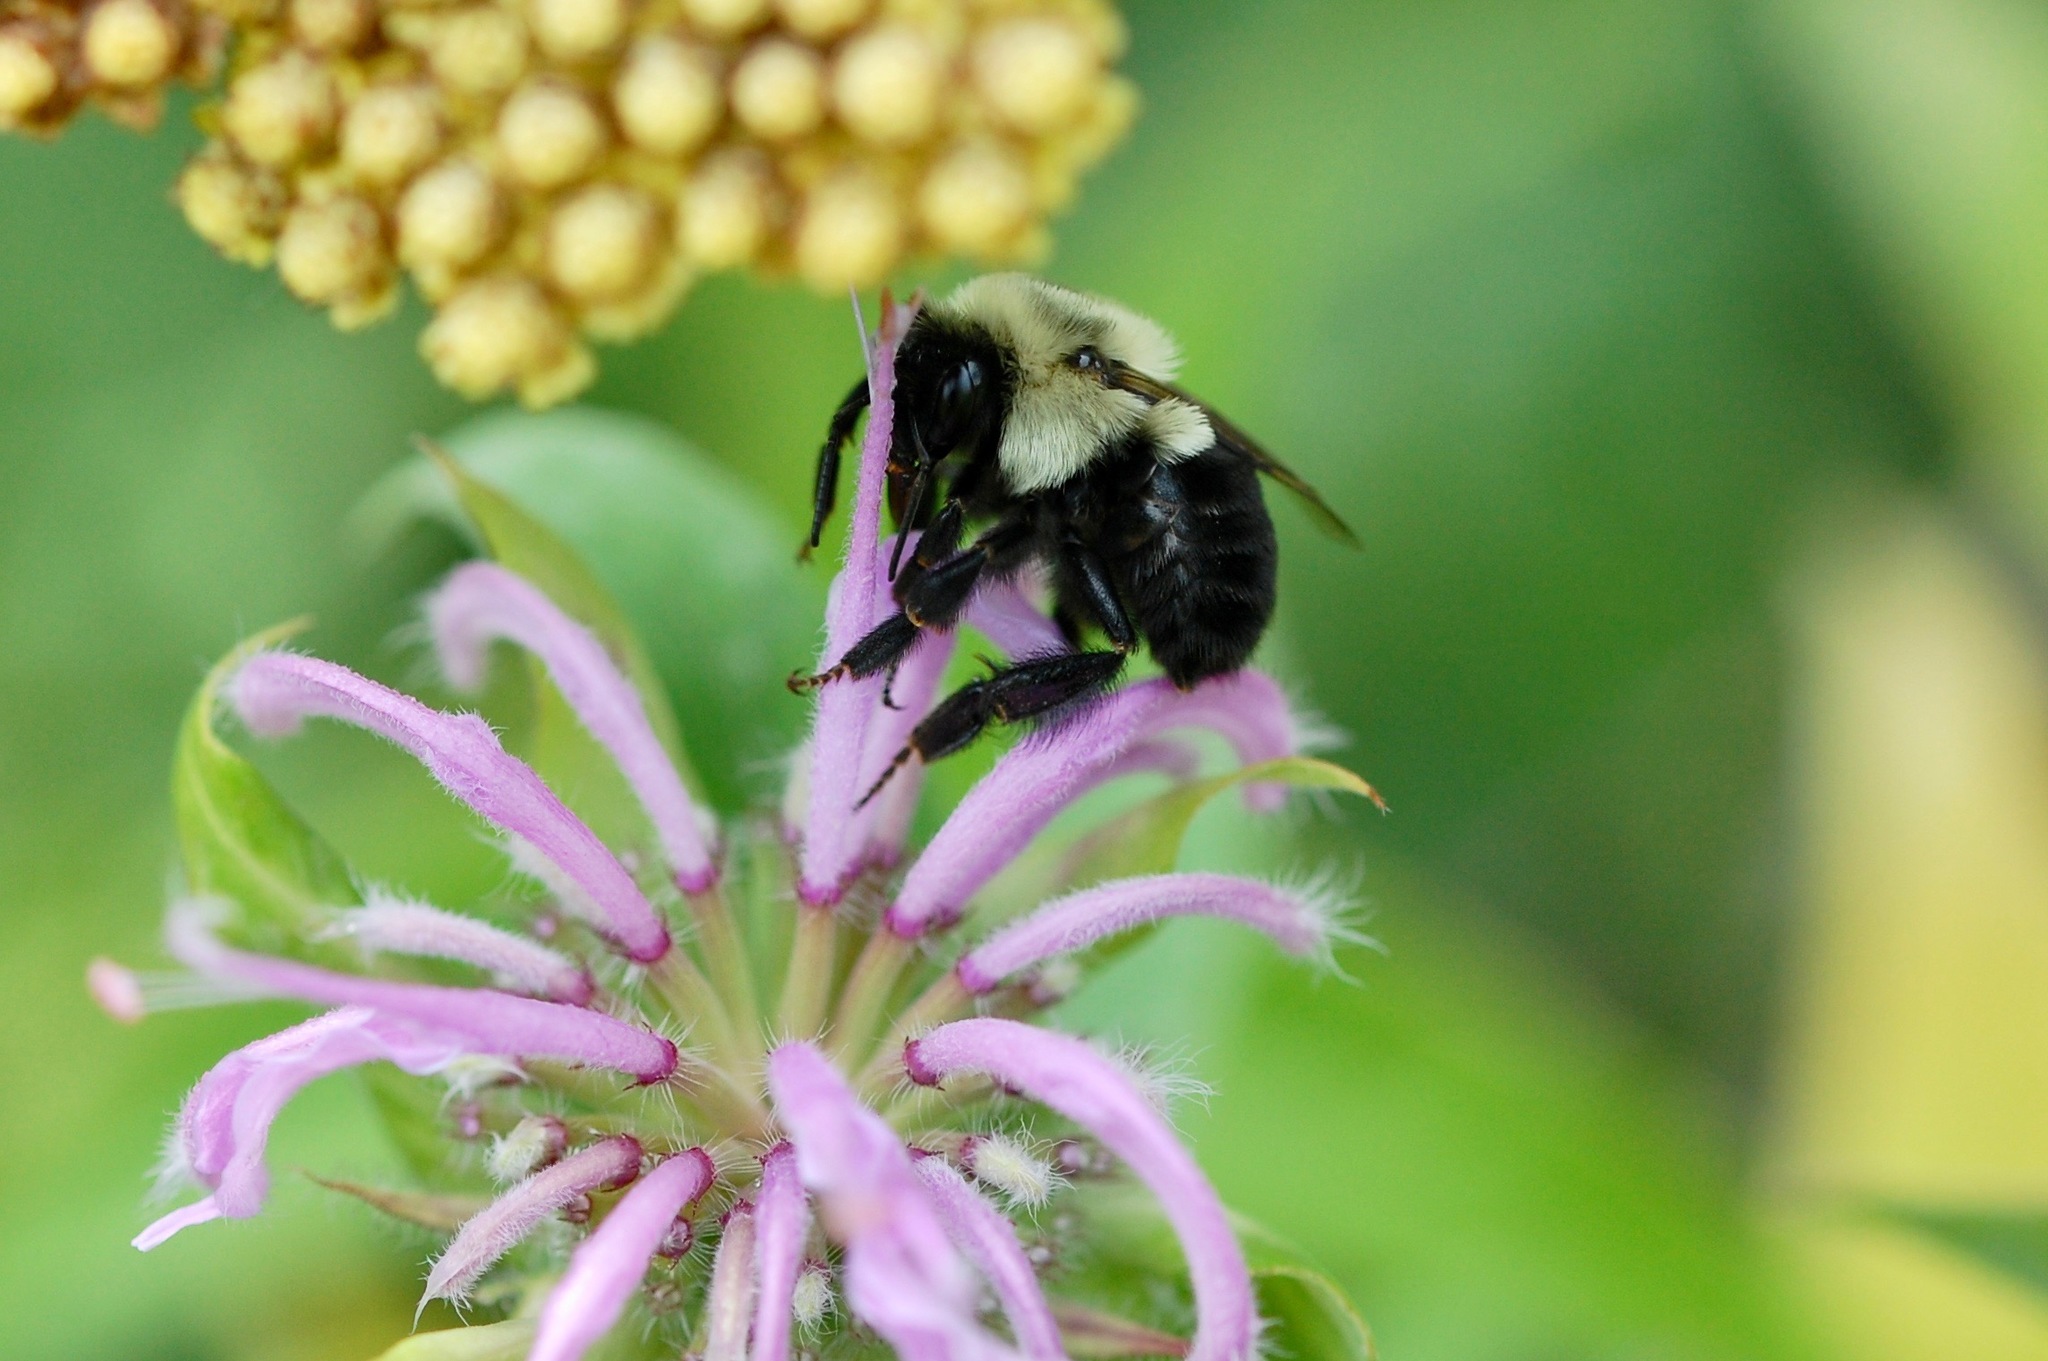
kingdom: Animalia
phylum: Arthropoda
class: Insecta
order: Hymenoptera
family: Apidae
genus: Bombus
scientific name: Bombus impatiens
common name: Common eastern bumble bee
